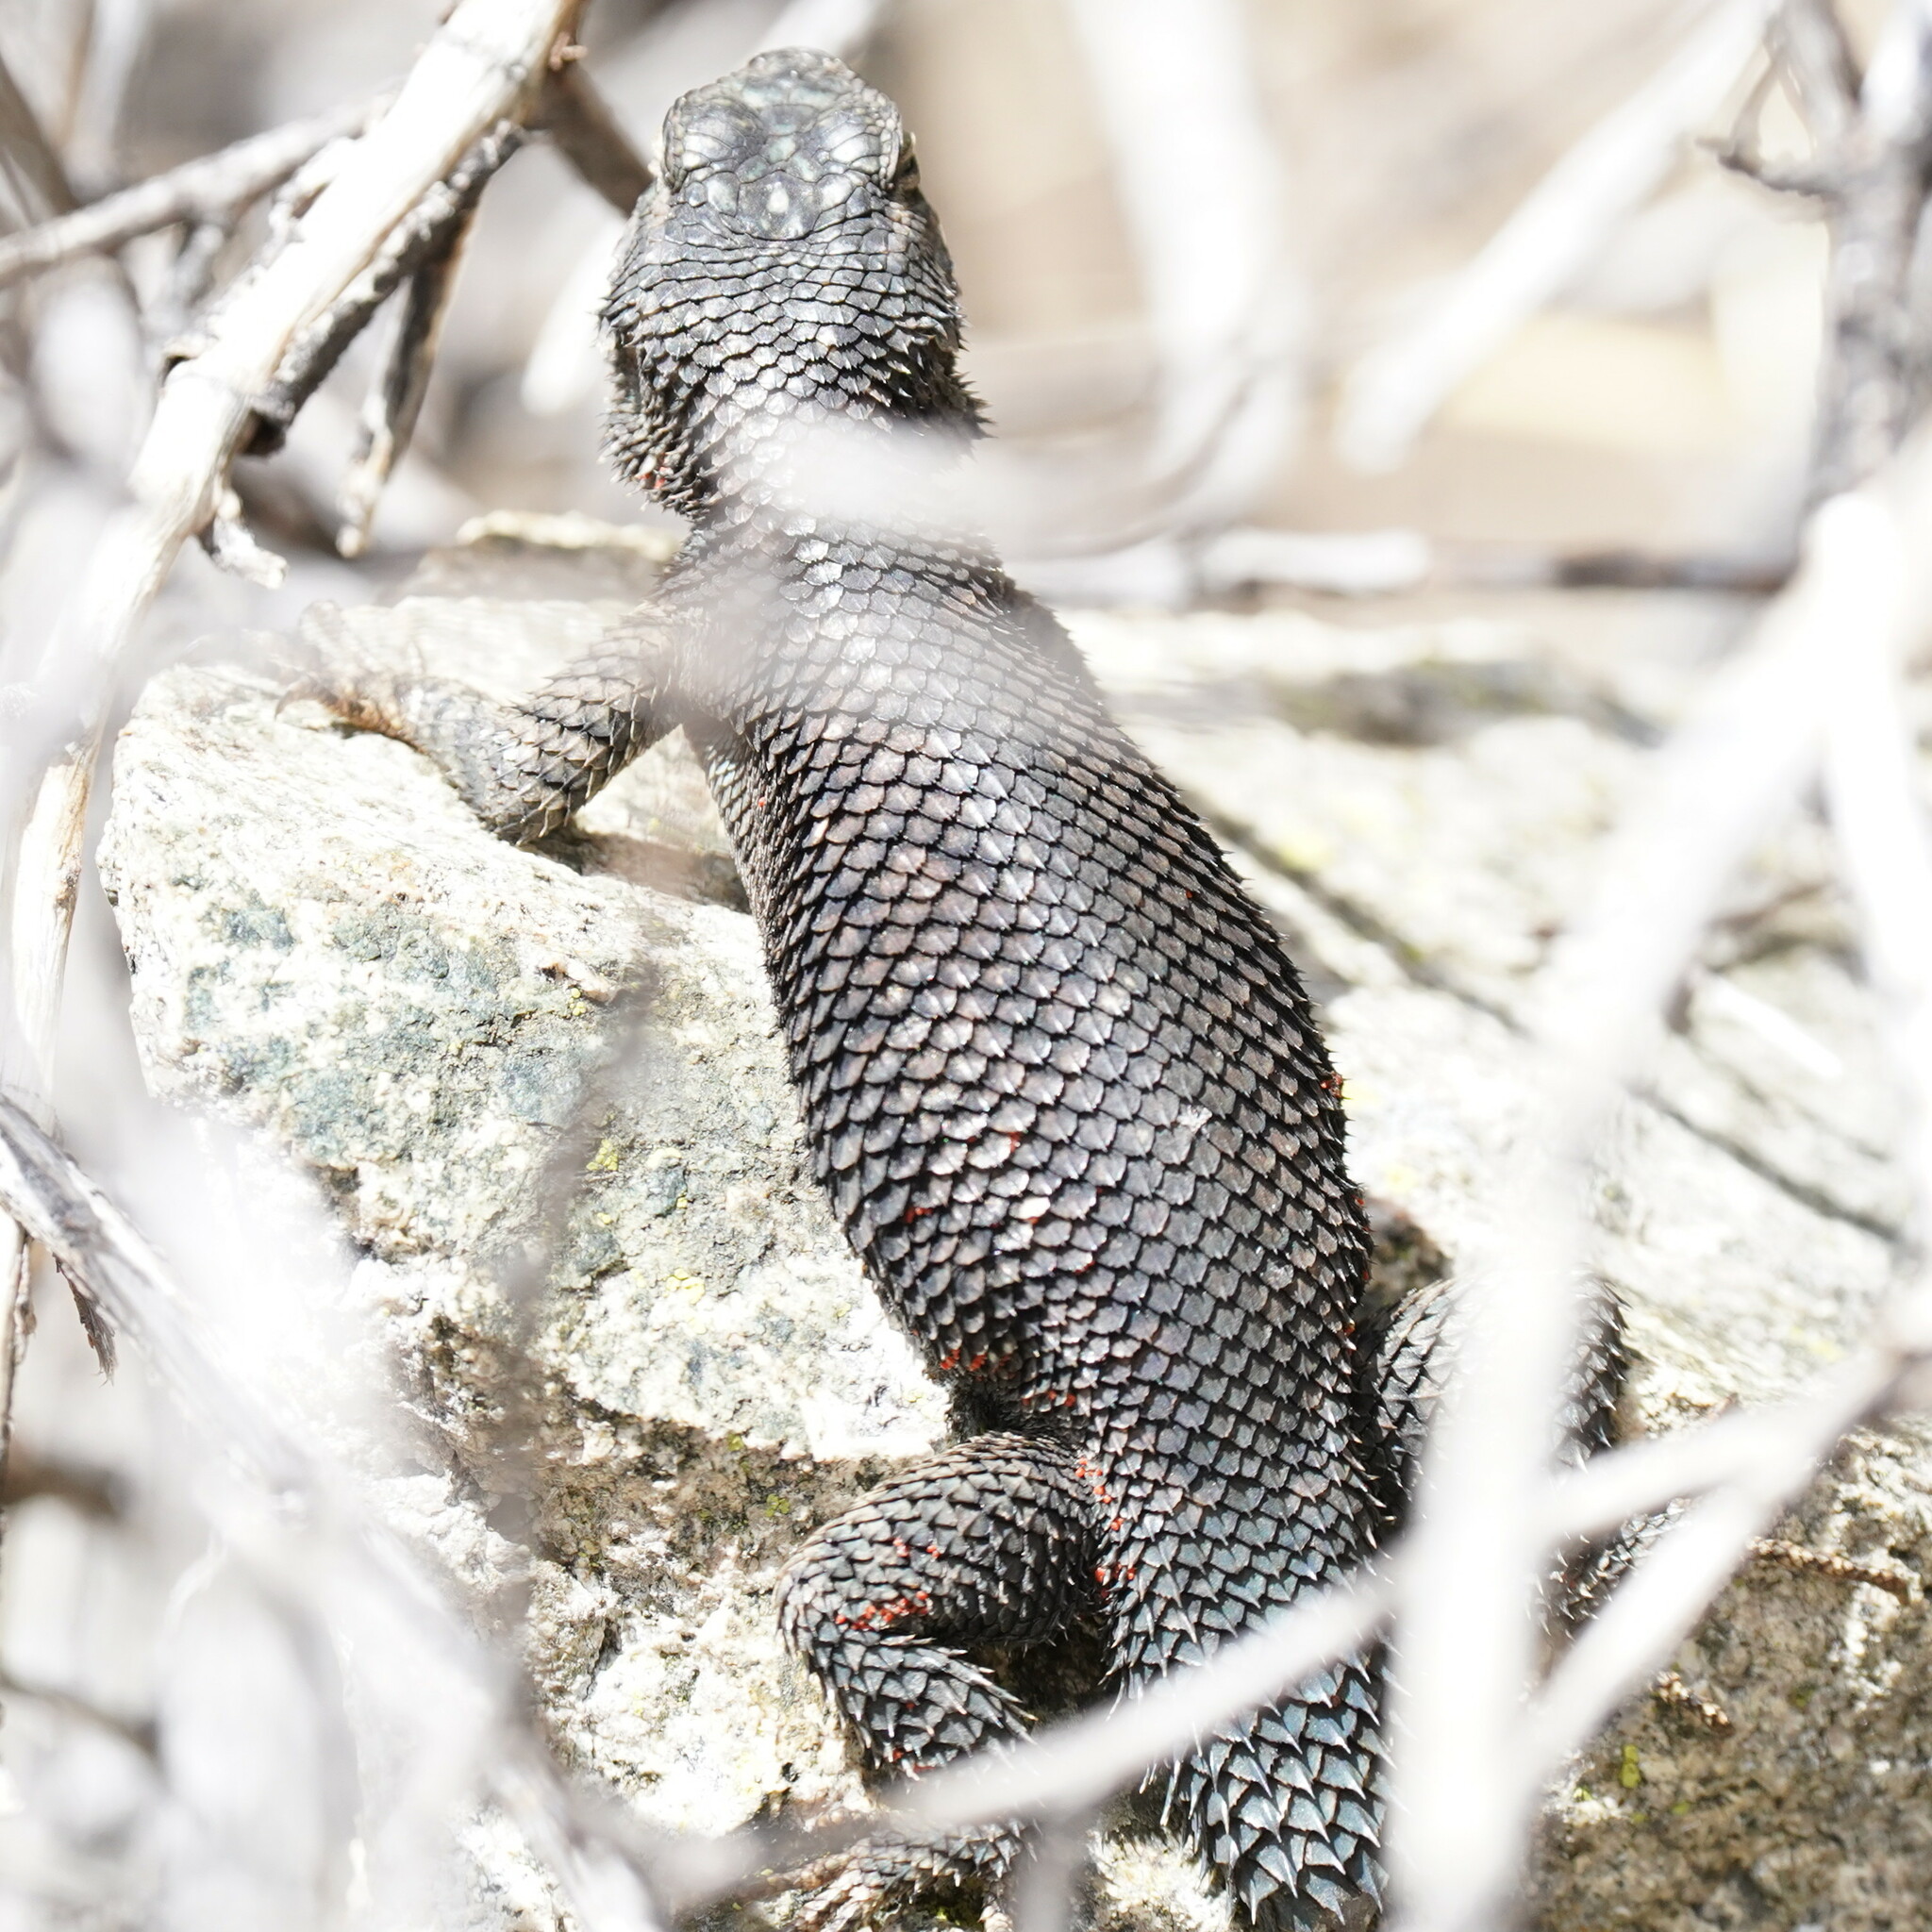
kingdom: Animalia
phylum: Chordata
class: Squamata
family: Phrynosomatidae
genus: Sceloporus
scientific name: Sceloporus jarrovii
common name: Yarrow's spiny lizard
